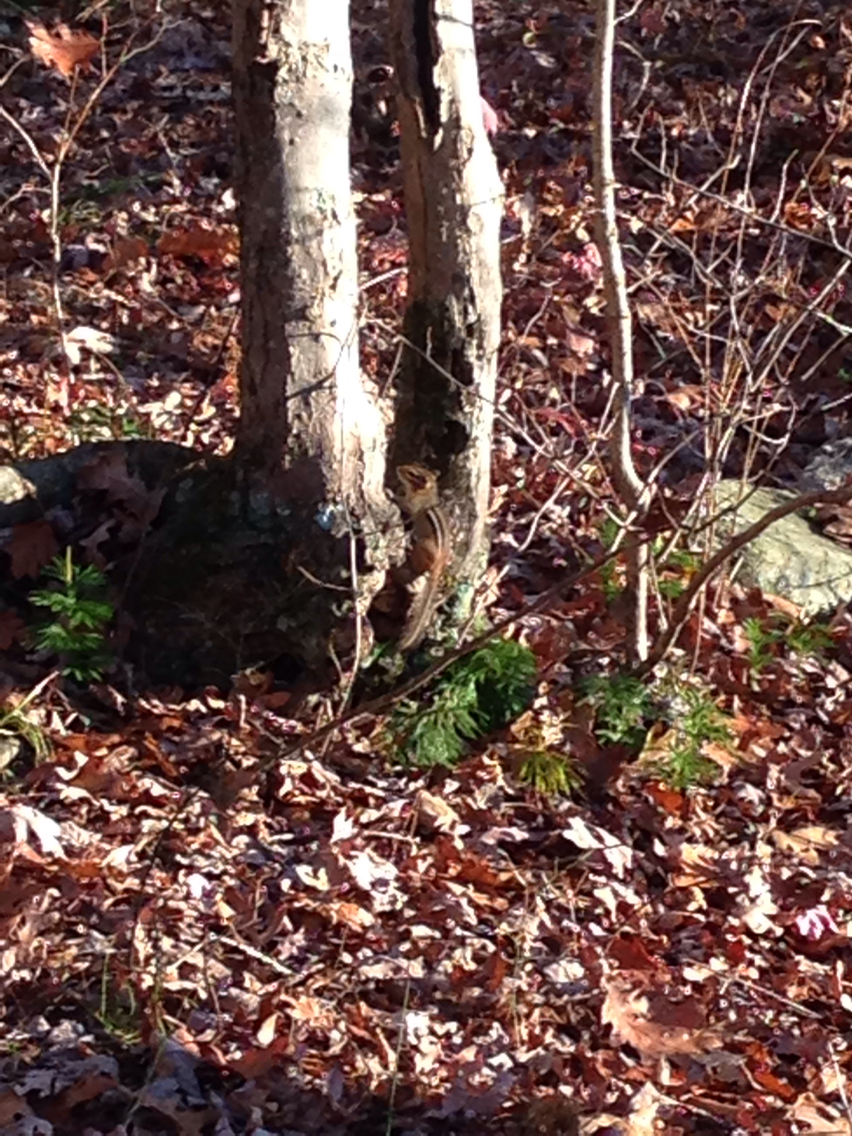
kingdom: Animalia
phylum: Chordata
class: Mammalia
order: Rodentia
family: Sciuridae
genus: Tamias
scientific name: Tamias striatus
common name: Eastern chipmunk
